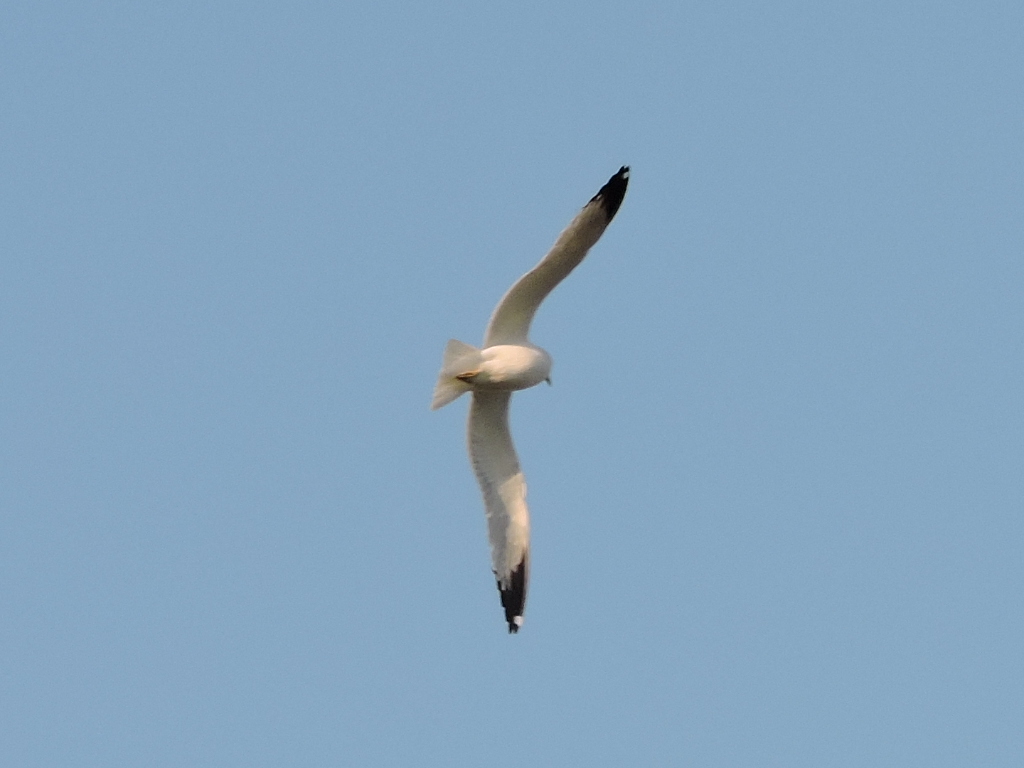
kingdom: Animalia
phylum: Chordata
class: Aves
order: Charadriiformes
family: Laridae
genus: Larus
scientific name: Larus delawarensis
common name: Ring-billed gull
